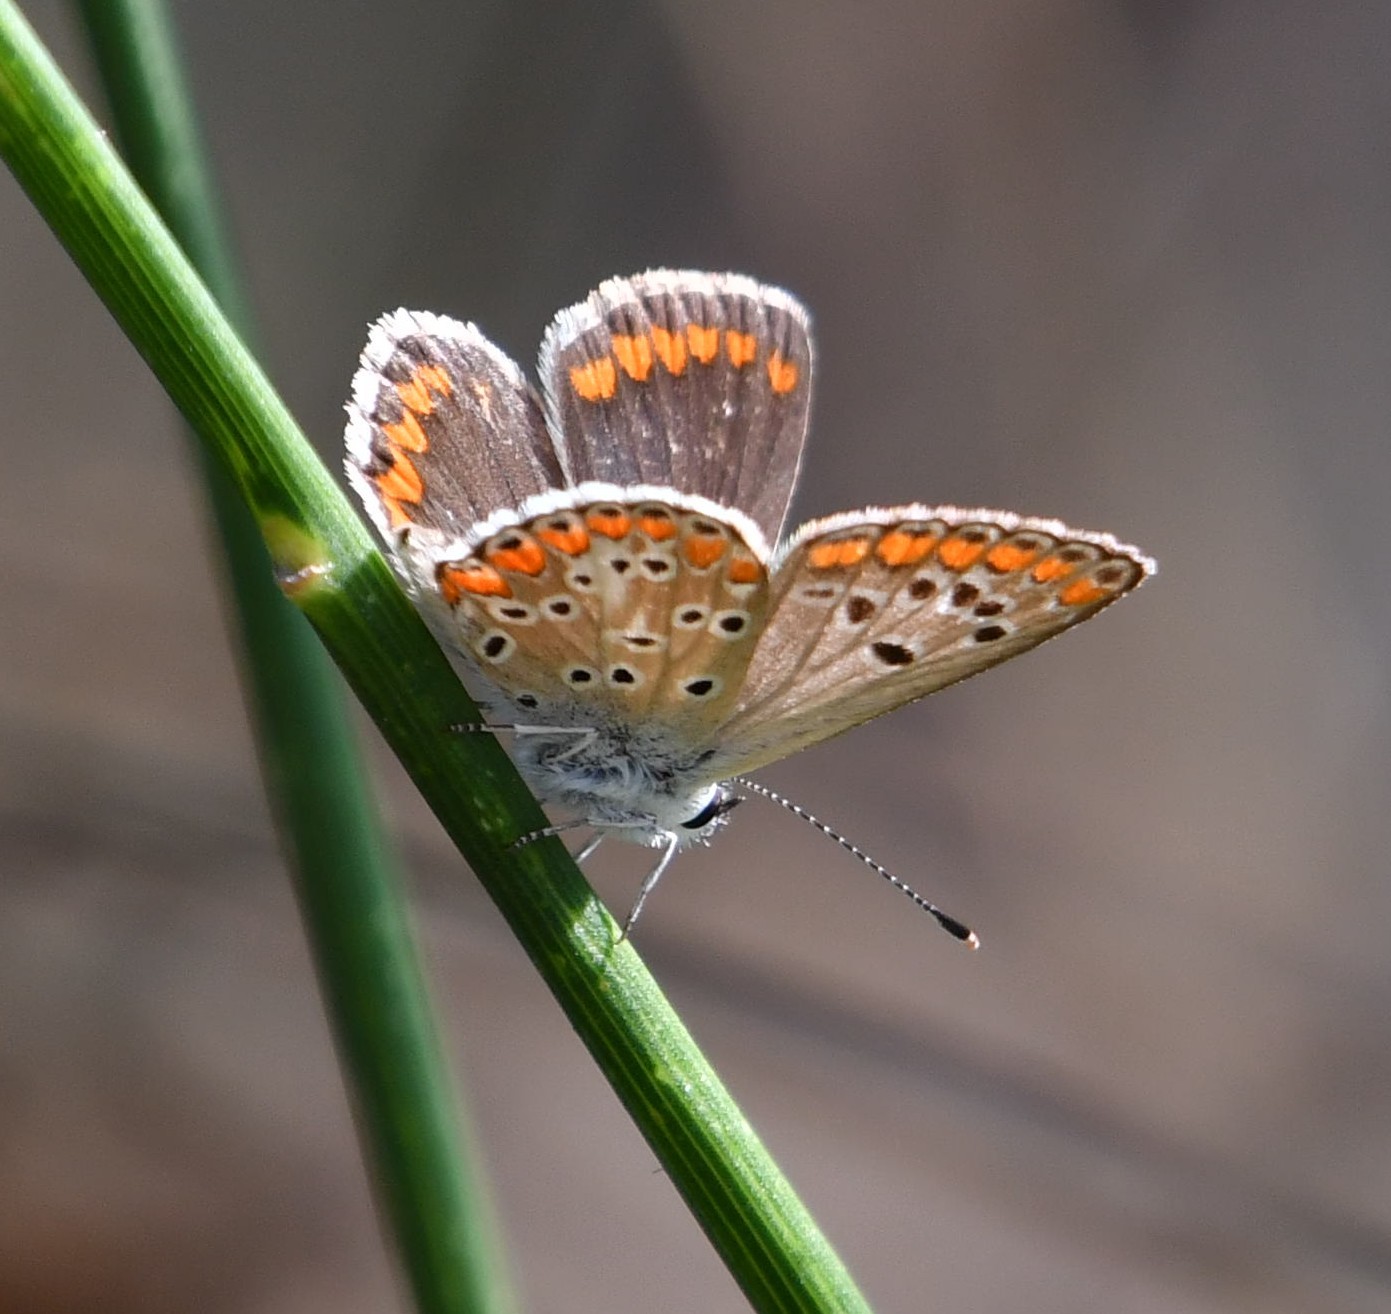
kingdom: Animalia
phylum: Arthropoda
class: Insecta
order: Lepidoptera
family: Lycaenidae
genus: Aricia
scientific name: Aricia agestis
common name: Brown argus
